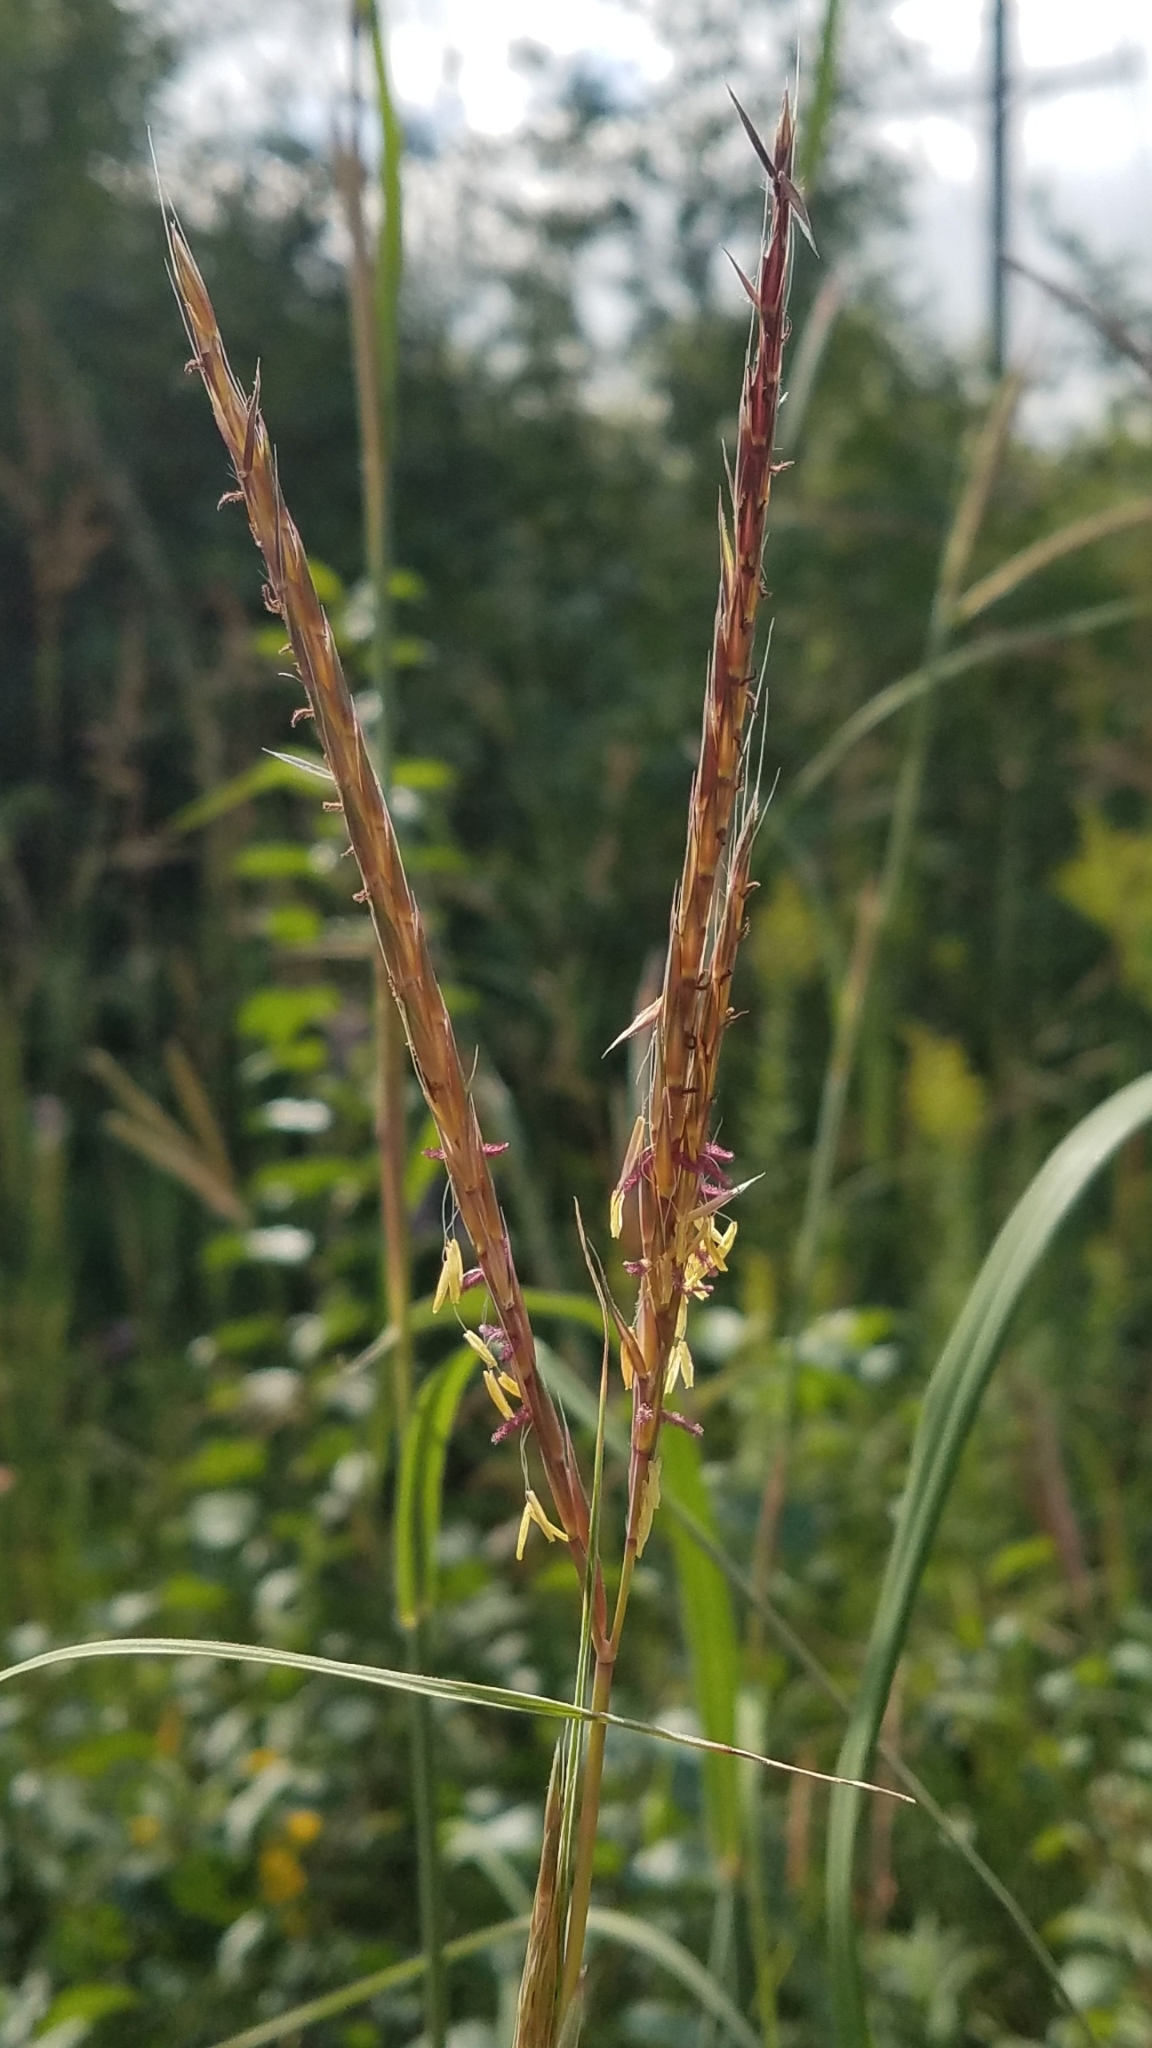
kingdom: Plantae
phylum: Tracheophyta
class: Liliopsida
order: Poales
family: Poaceae
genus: Andropogon
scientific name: Andropogon gerardi
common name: Big bluestem
